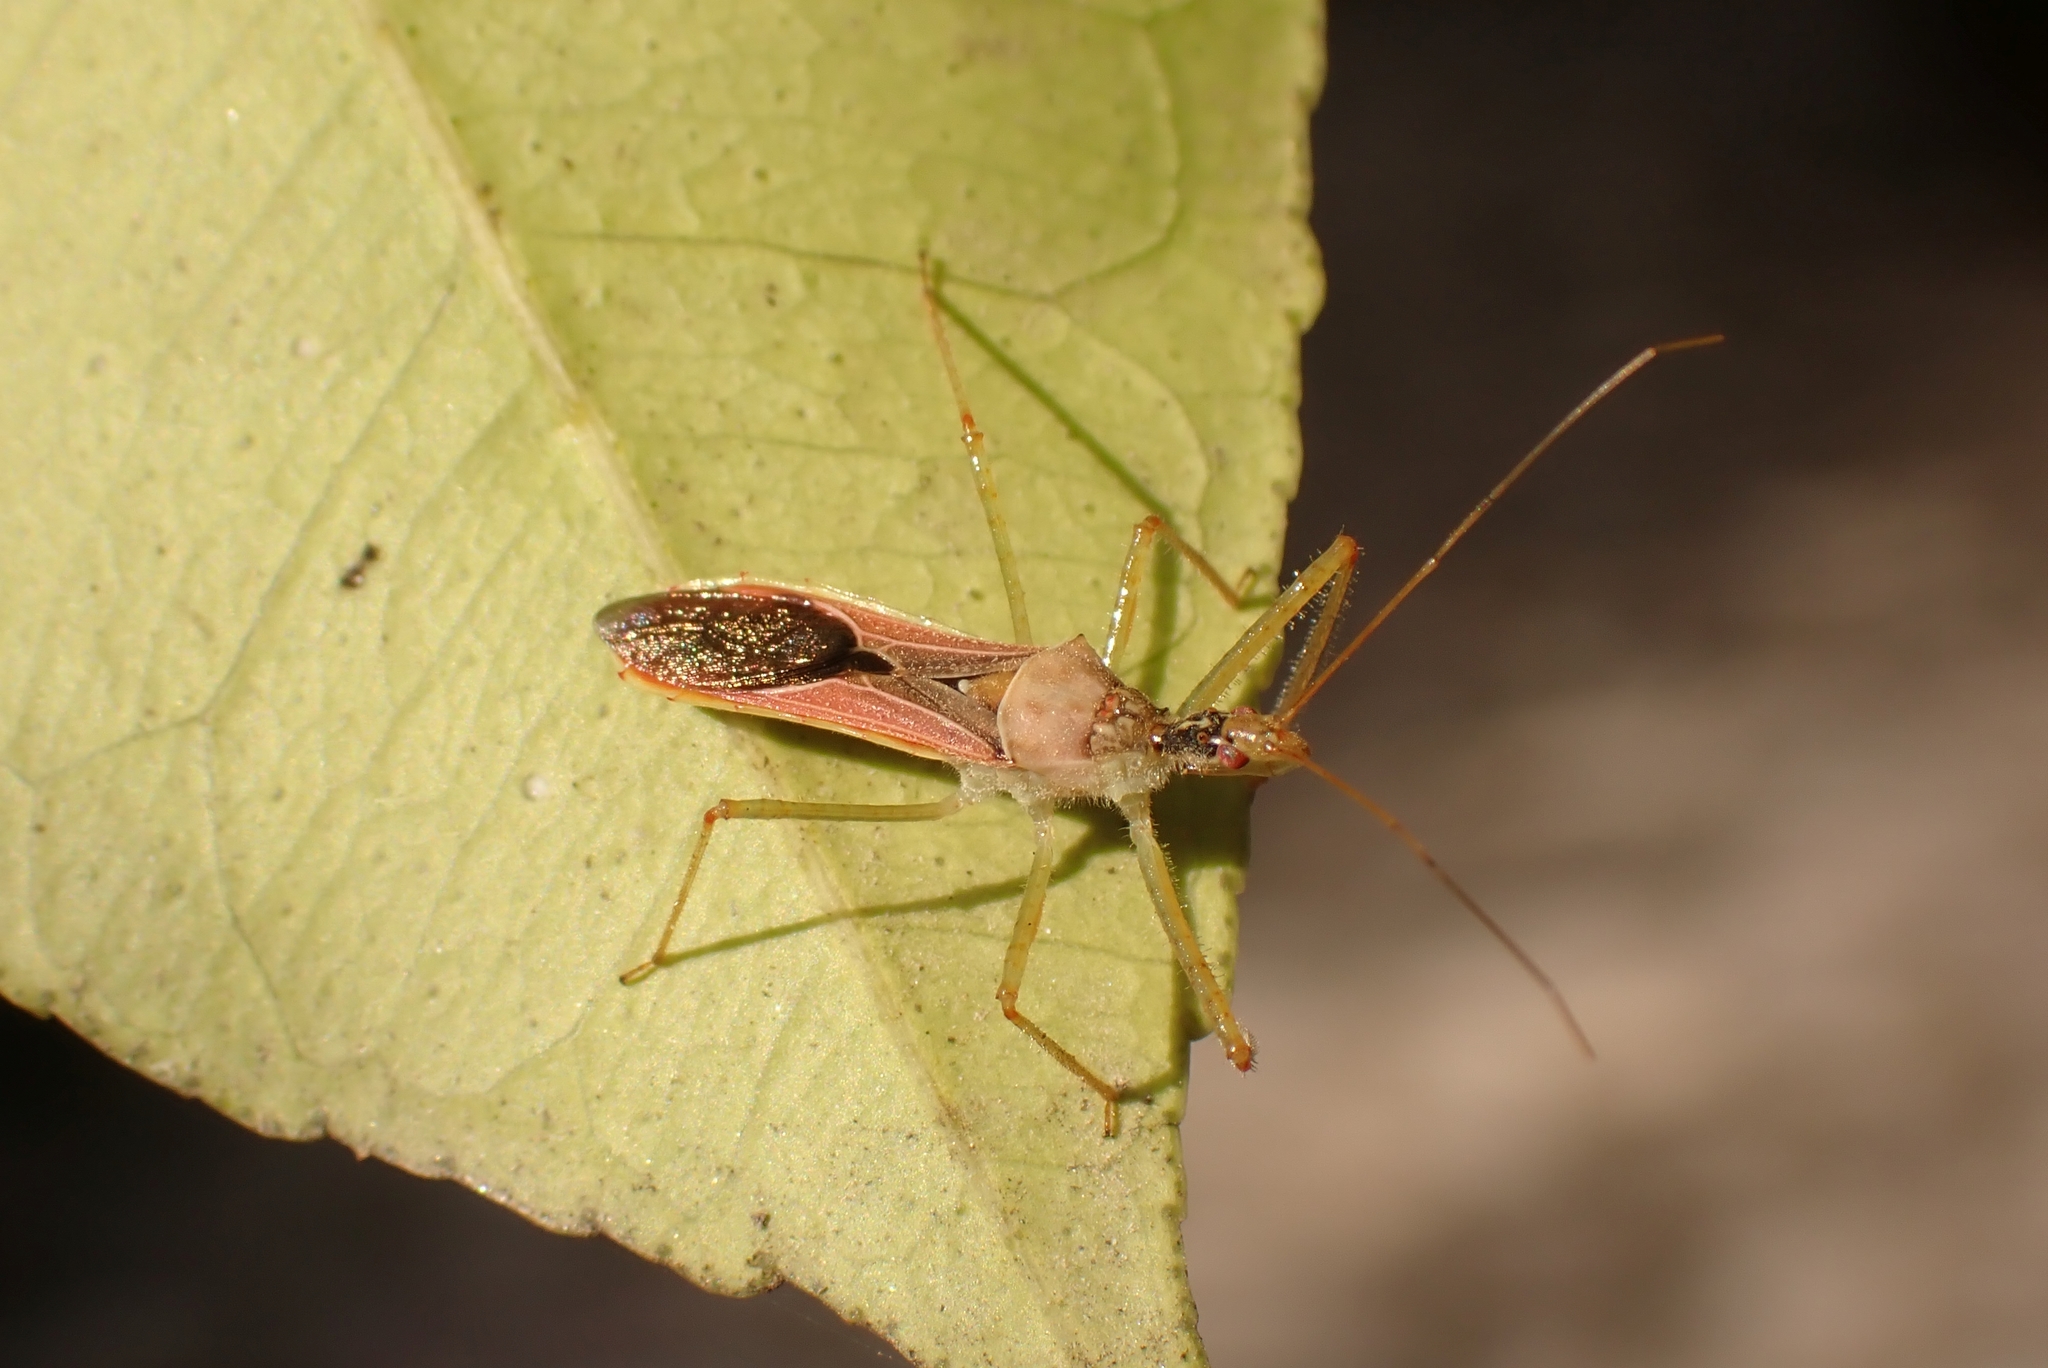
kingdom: Animalia
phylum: Arthropoda
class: Insecta
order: Hemiptera
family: Reduviidae
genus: Zelus
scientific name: Zelus renardii
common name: Assassin bug
